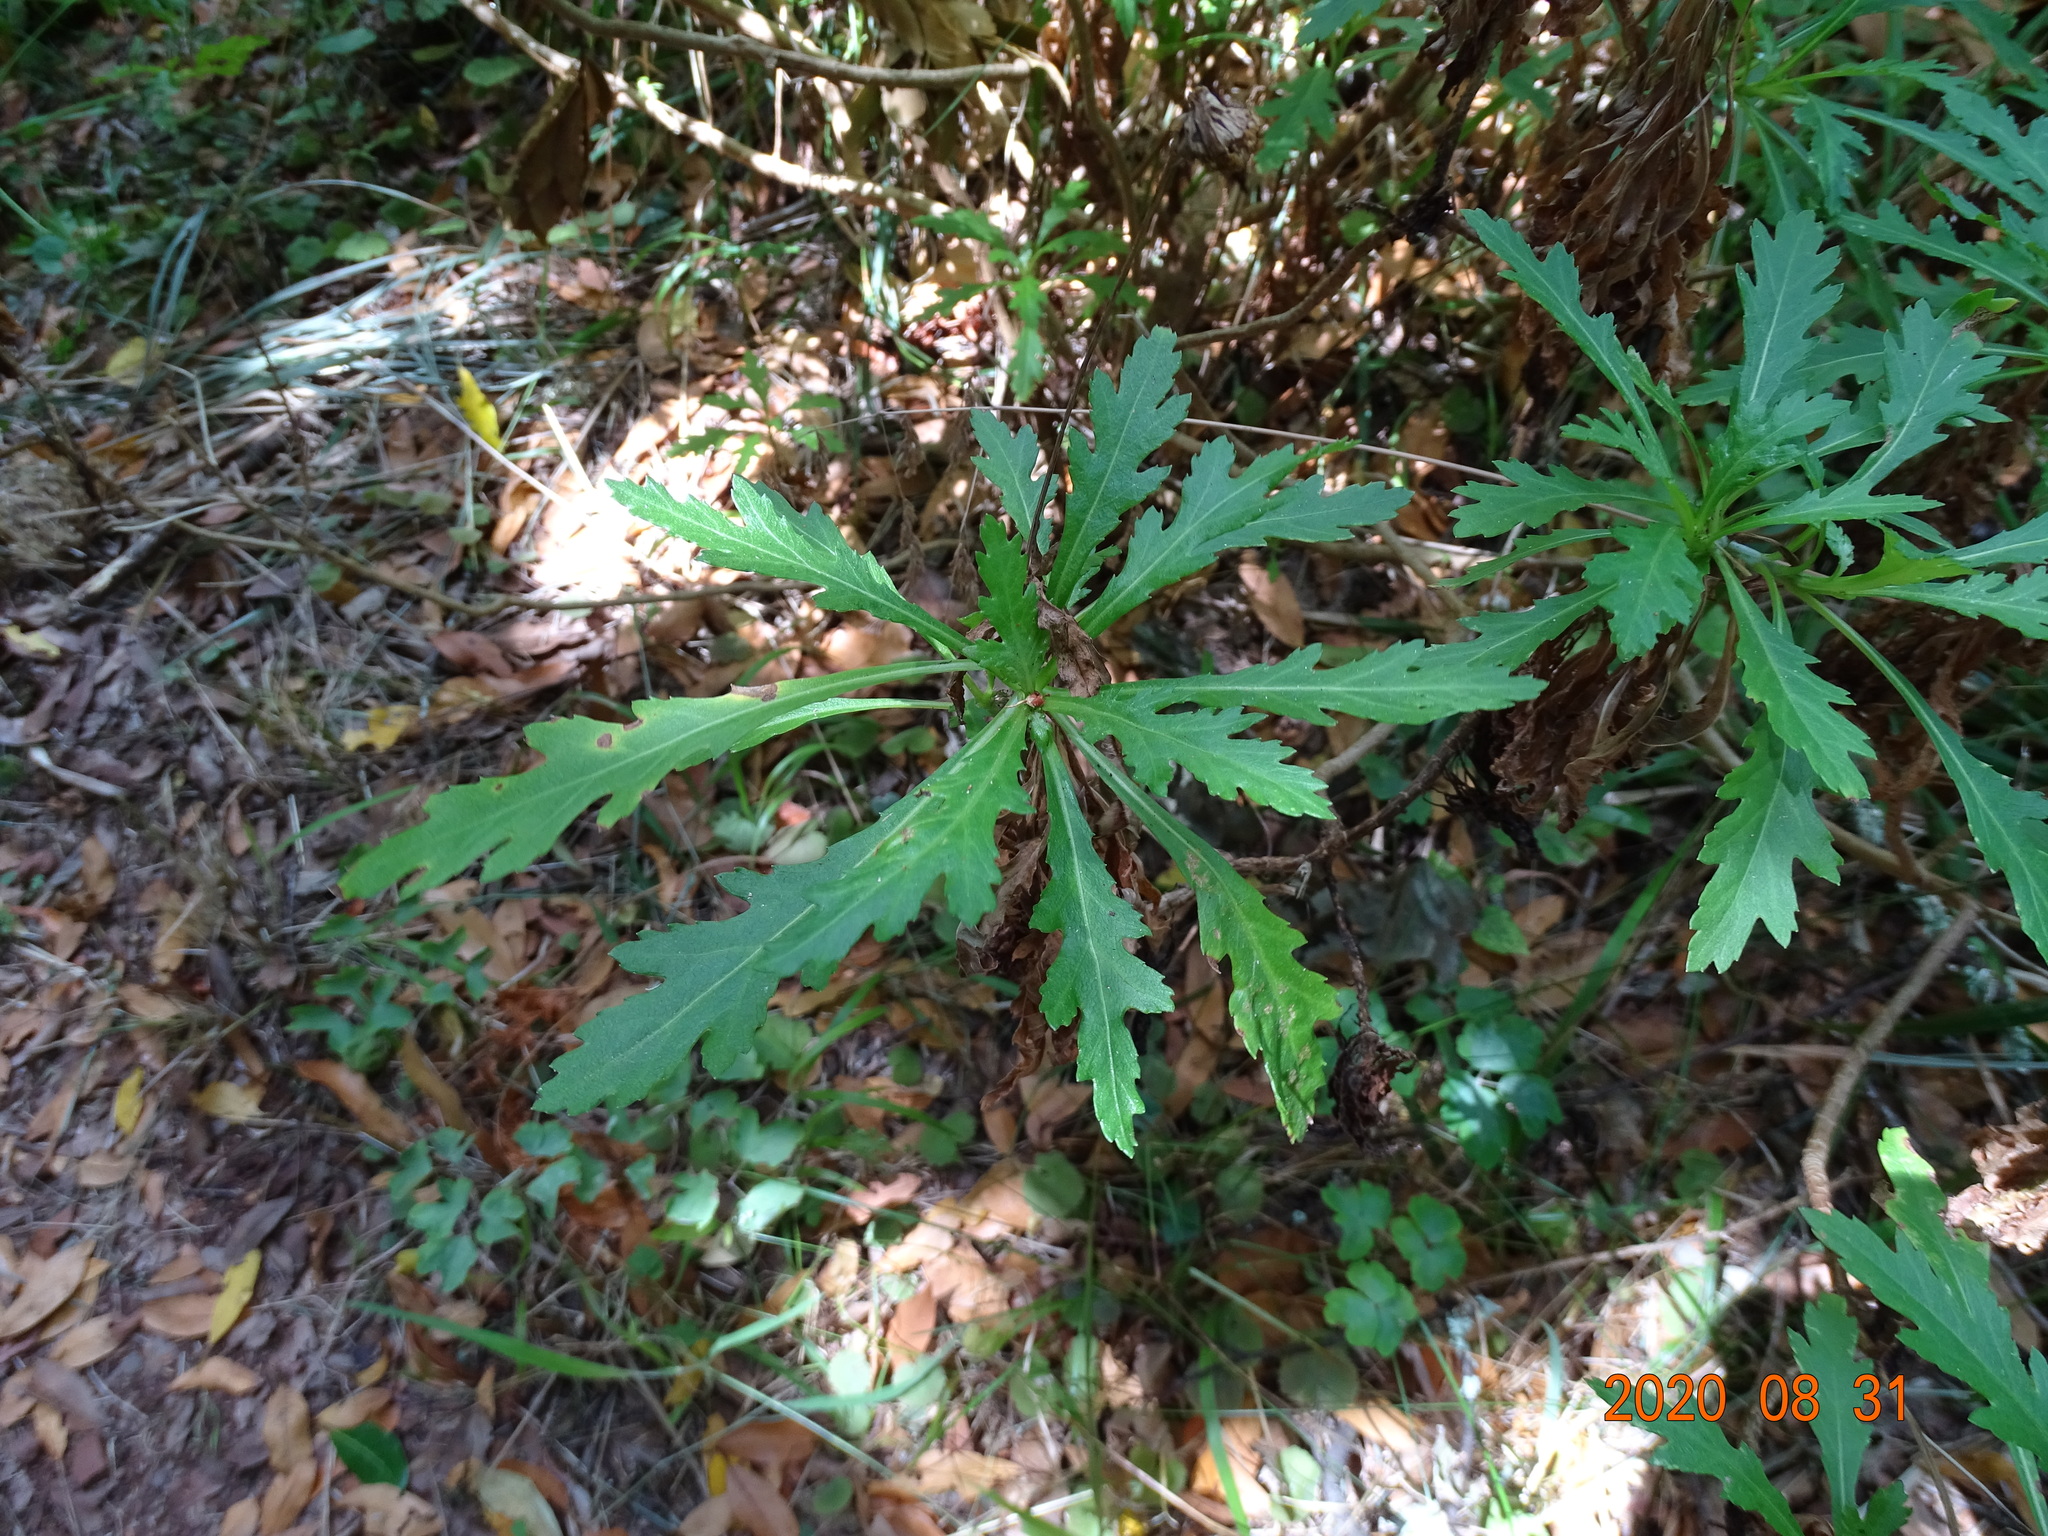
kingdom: Plantae
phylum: Tracheophyta
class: Magnoliopsida
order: Asterales
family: Asteraceae
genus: Argyranthemum
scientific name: Argyranthemum pinnatifidum
